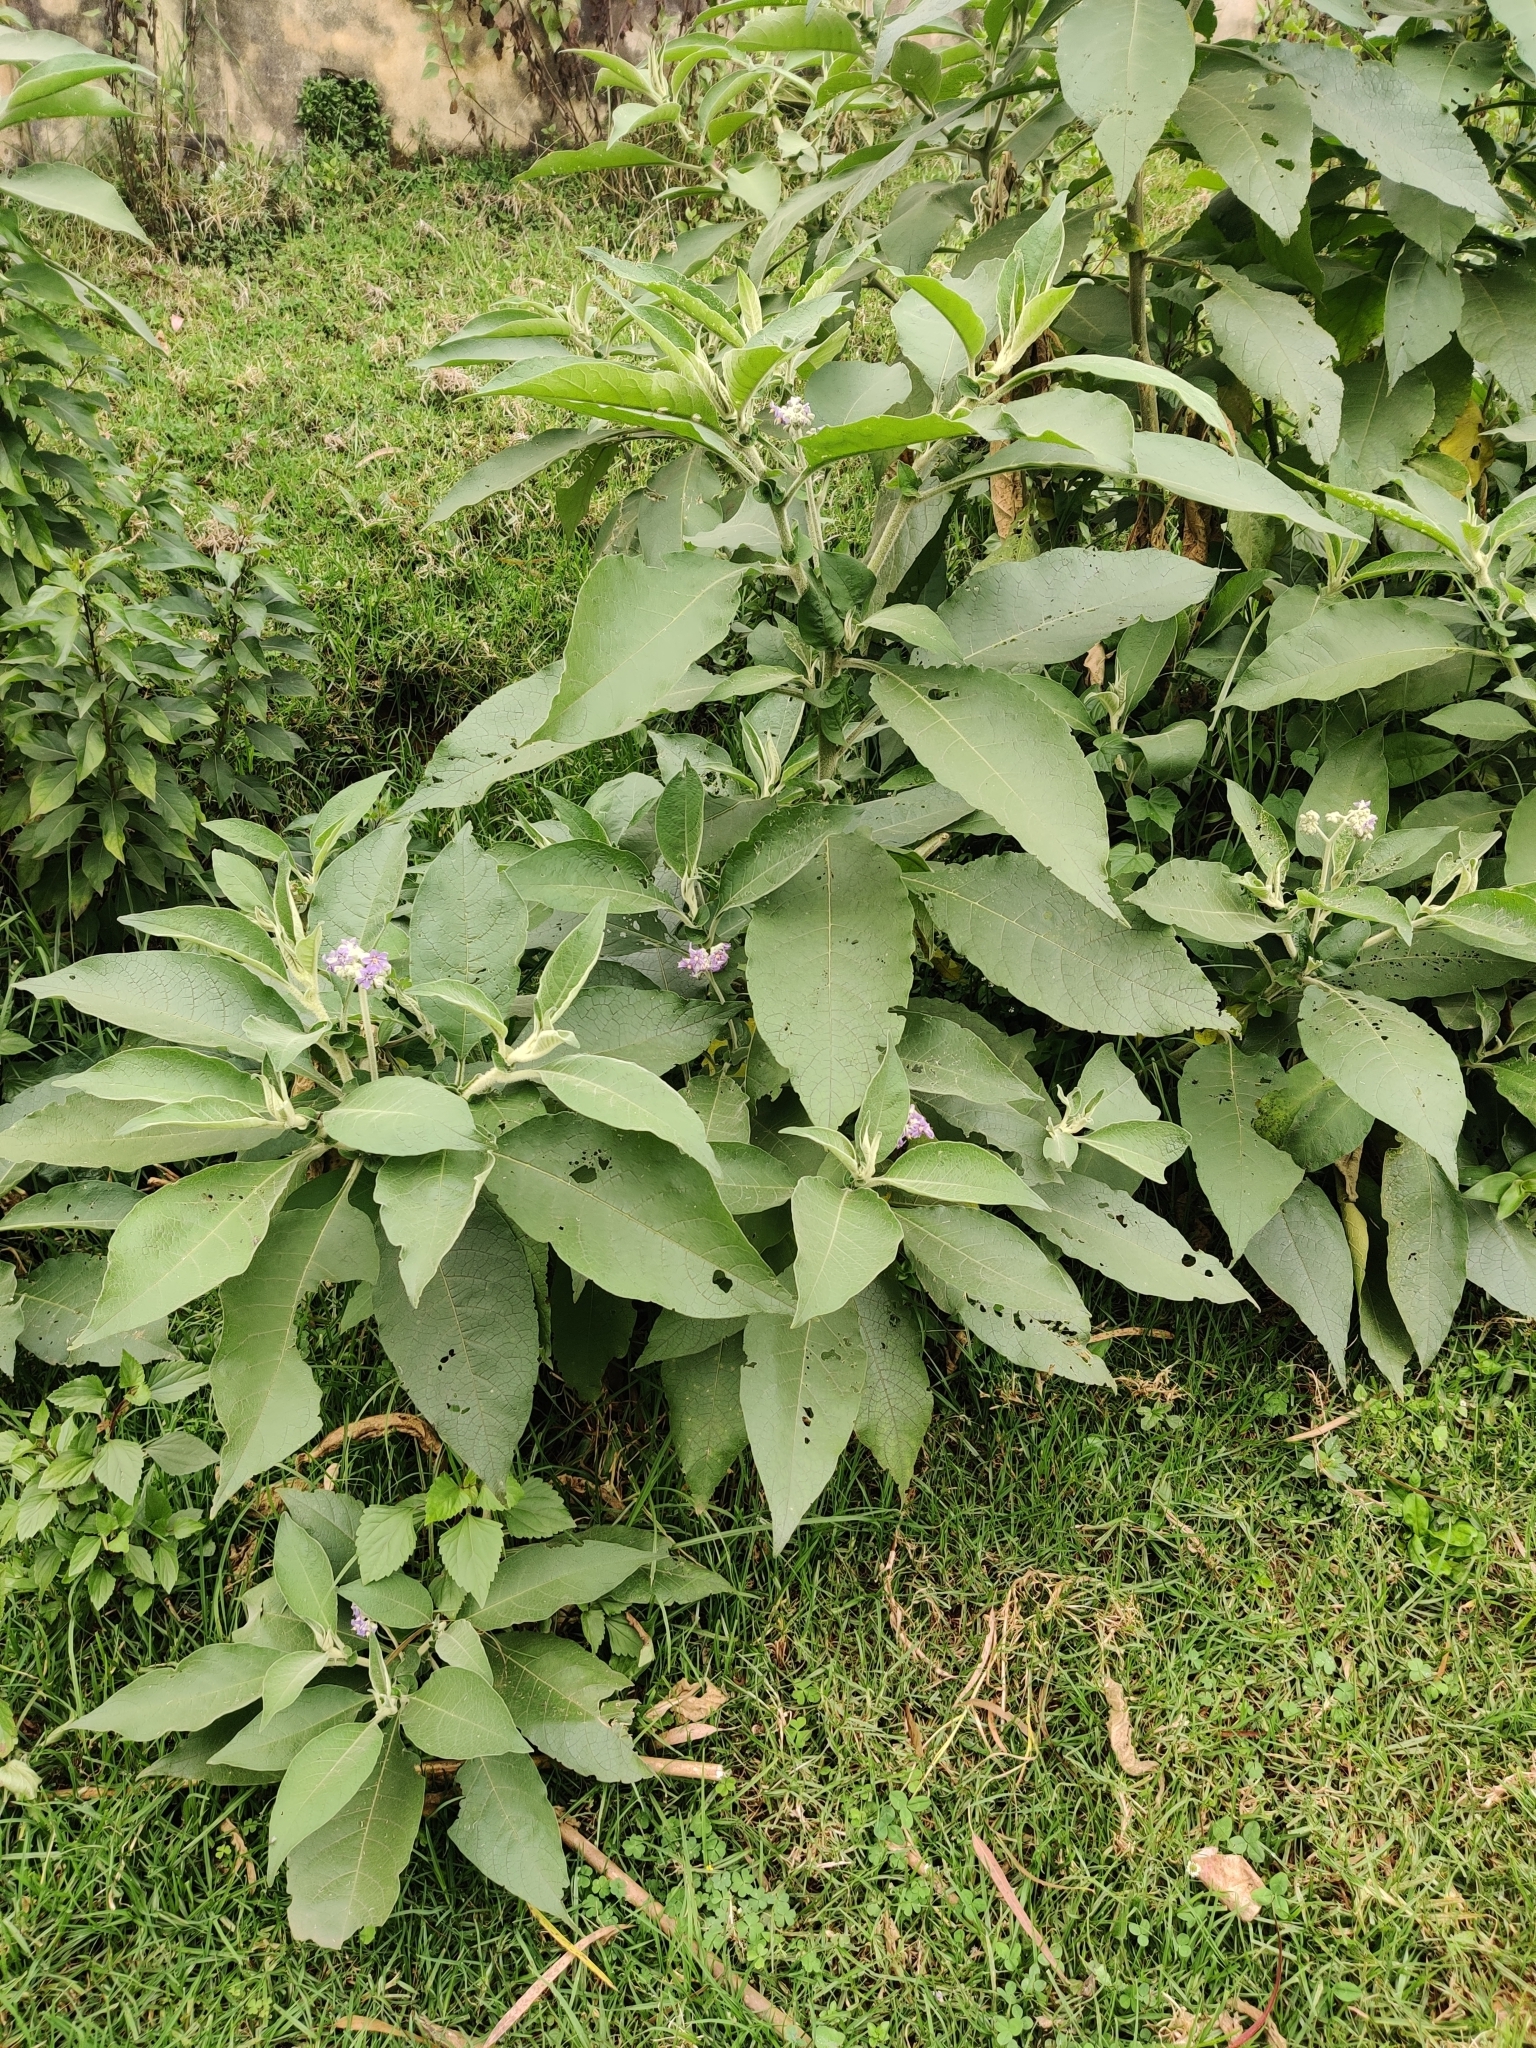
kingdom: Plantae
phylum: Tracheophyta
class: Magnoliopsida
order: Solanales
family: Solanaceae
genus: Solanum
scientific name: Solanum mauritianum
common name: Earleaf nightshade
